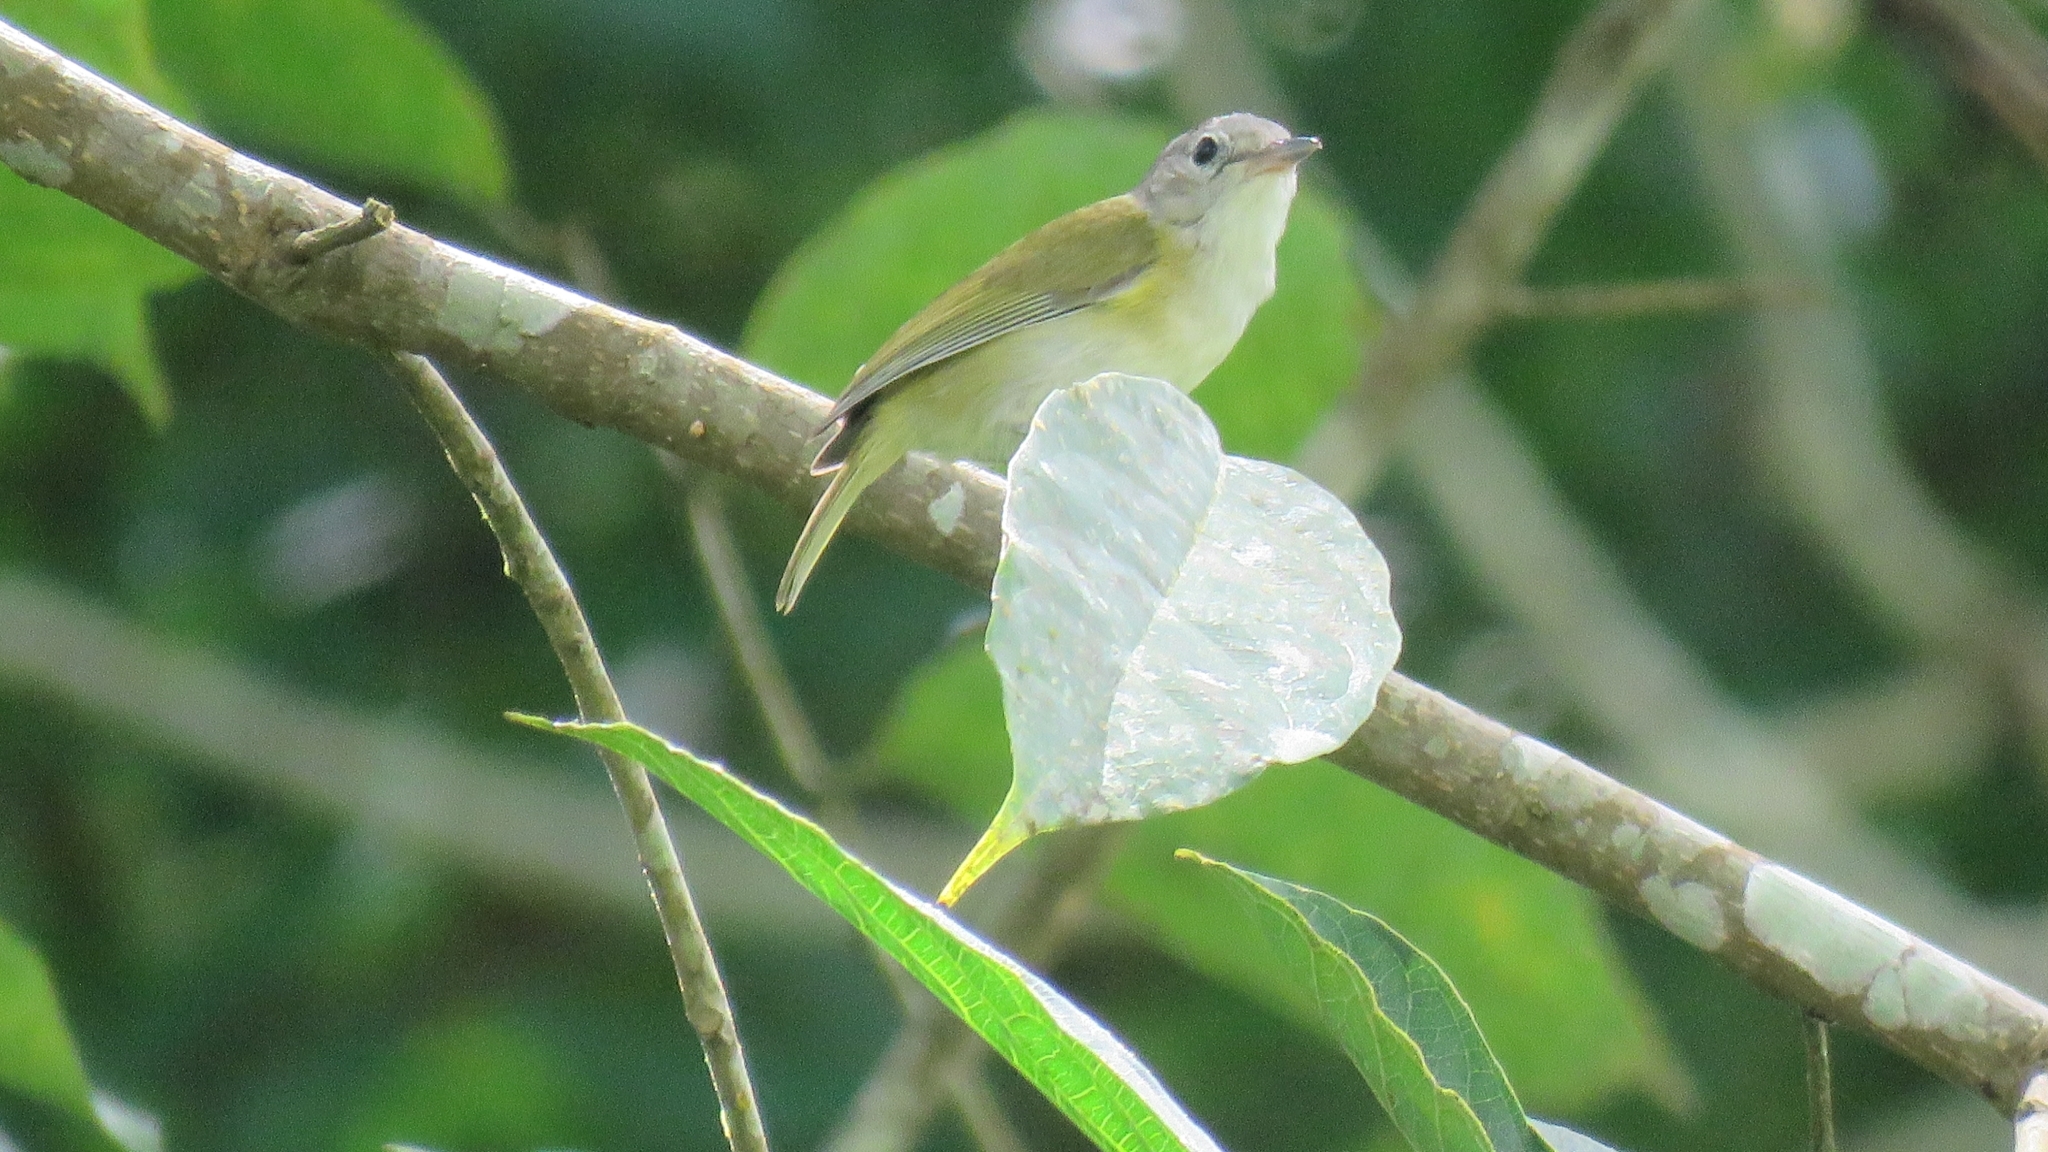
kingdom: Animalia
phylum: Chordata
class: Aves
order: Passeriformes
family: Vireonidae
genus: Hylophilus
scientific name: Hylophilus decurtatus
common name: Lesser greenlet
